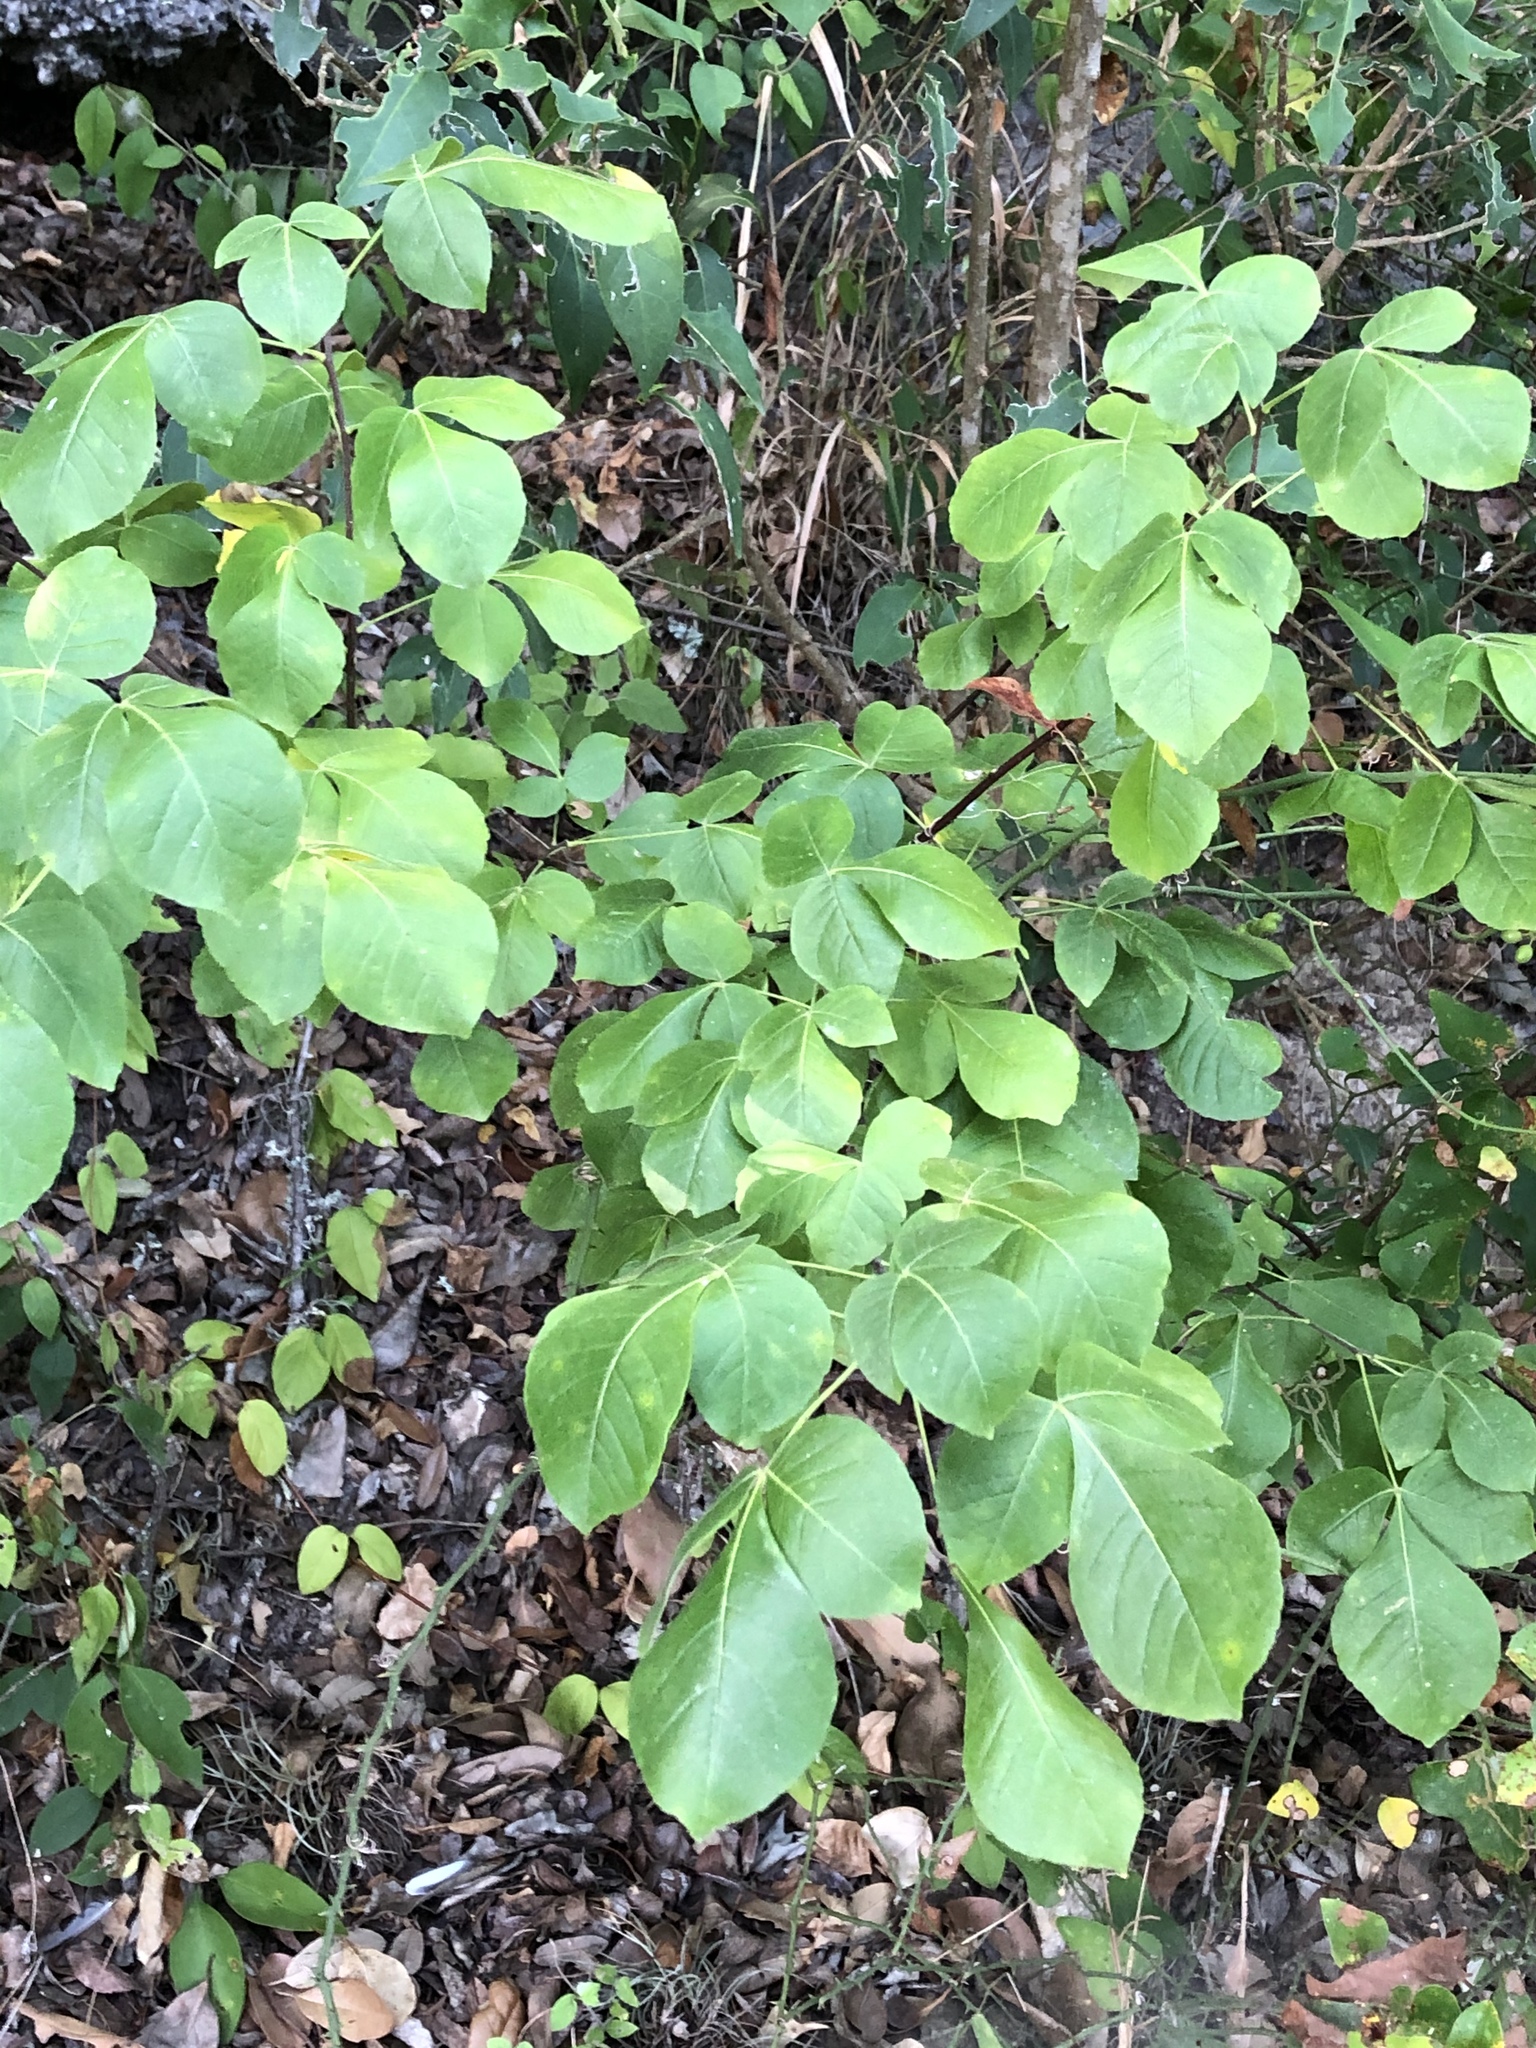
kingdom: Plantae
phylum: Tracheophyta
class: Magnoliopsida
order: Sapindales
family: Rutaceae
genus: Ptelea
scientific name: Ptelea trifoliata
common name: Common hop-tree
